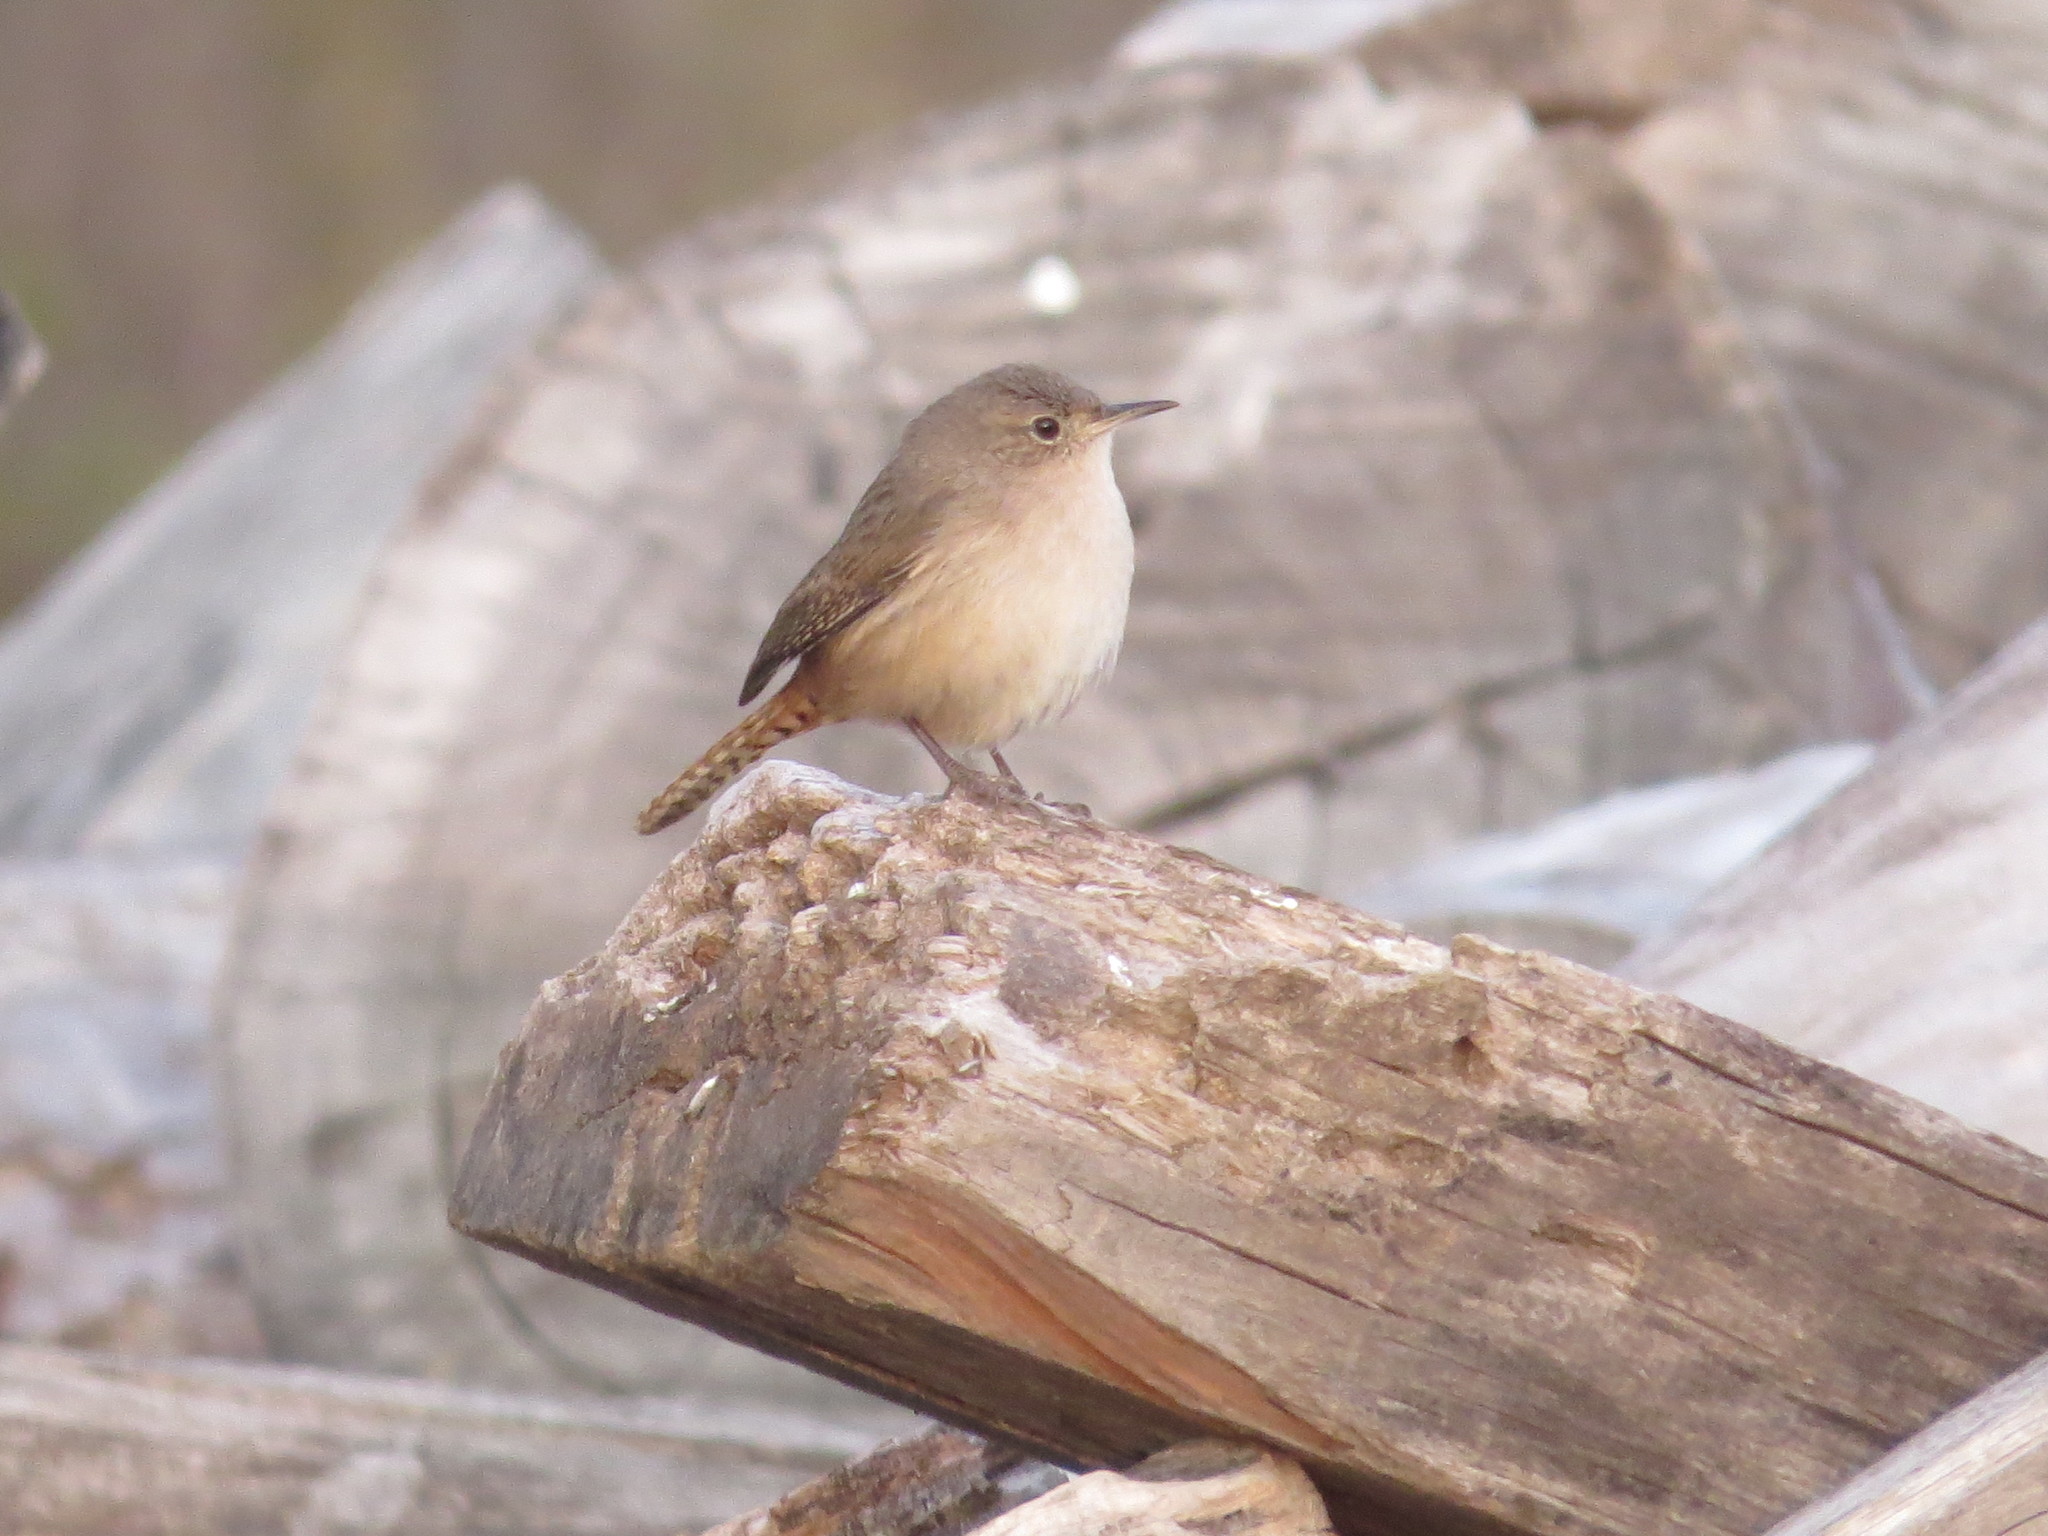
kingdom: Animalia
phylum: Chordata
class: Aves
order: Passeriformes
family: Troglodytidae
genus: Troglodytes
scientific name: Troglodytes aedon
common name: House wren
